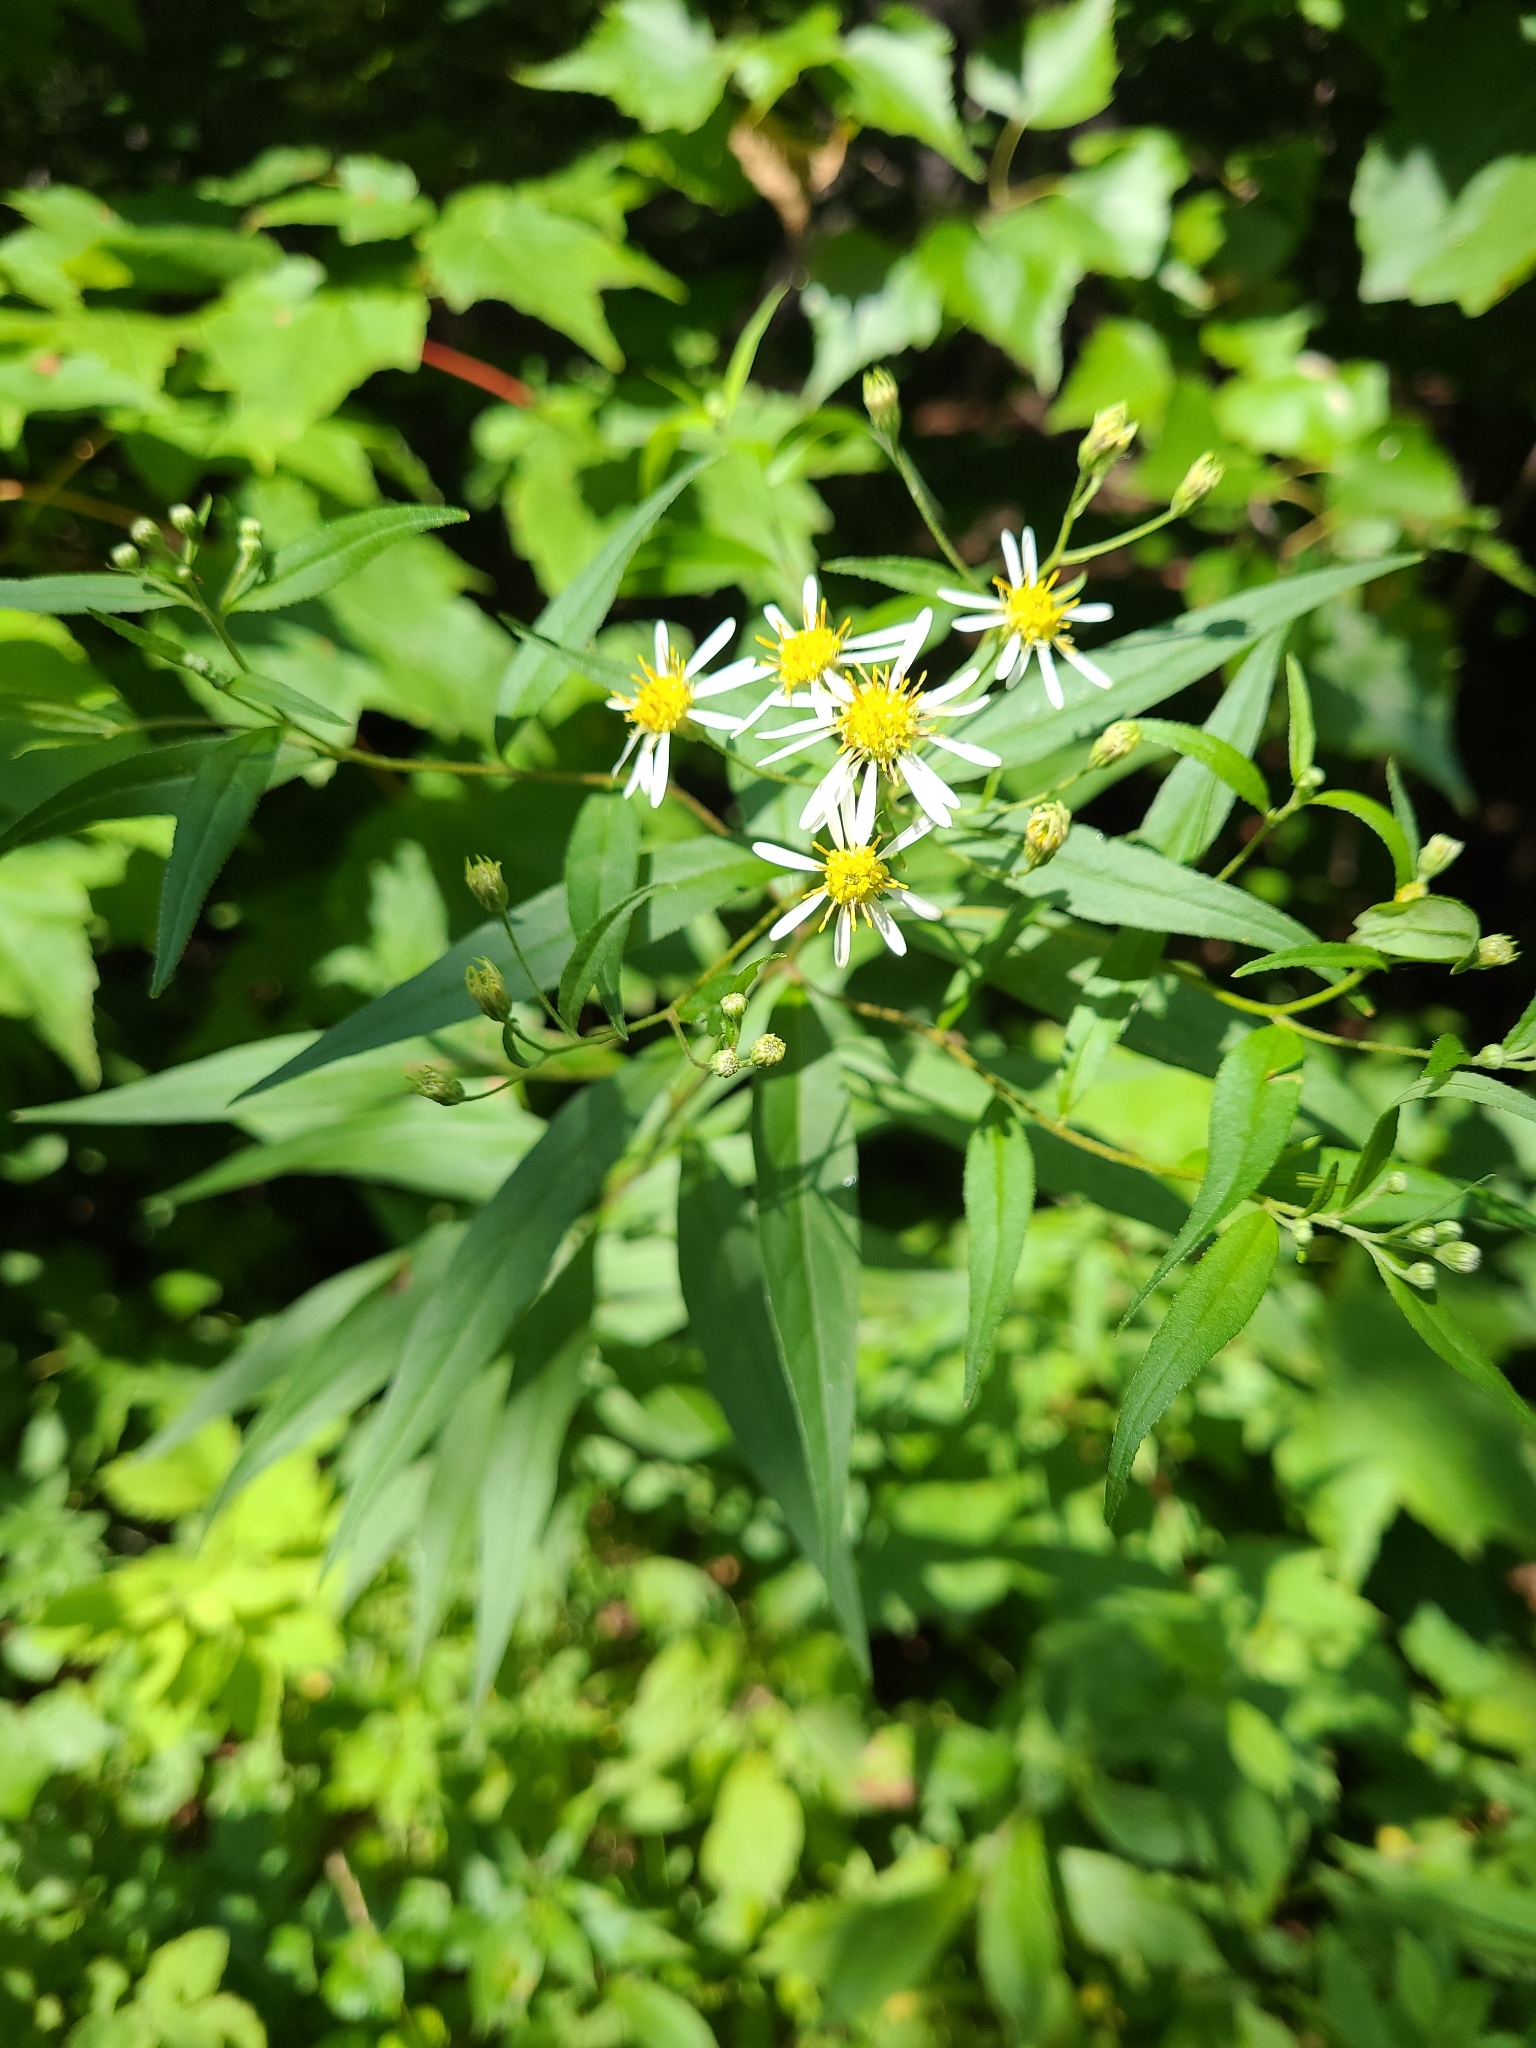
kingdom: Plantae
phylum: Tracheophyta
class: Magnoliopsida
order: Asterales
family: Asteraceae
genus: Doellingeria
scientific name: Doellingeria umbellata
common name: Flat-top white aster
